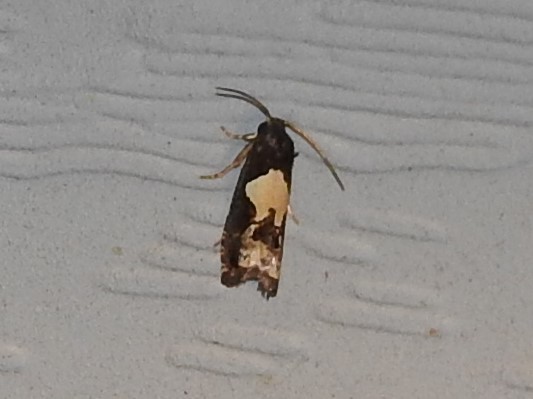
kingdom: Animalia
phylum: Arthropoda
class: Insecta
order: Lepidoptera
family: Tortricidae
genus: Epiblema
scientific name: Epiblema otiosana
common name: Bidens borer moth
